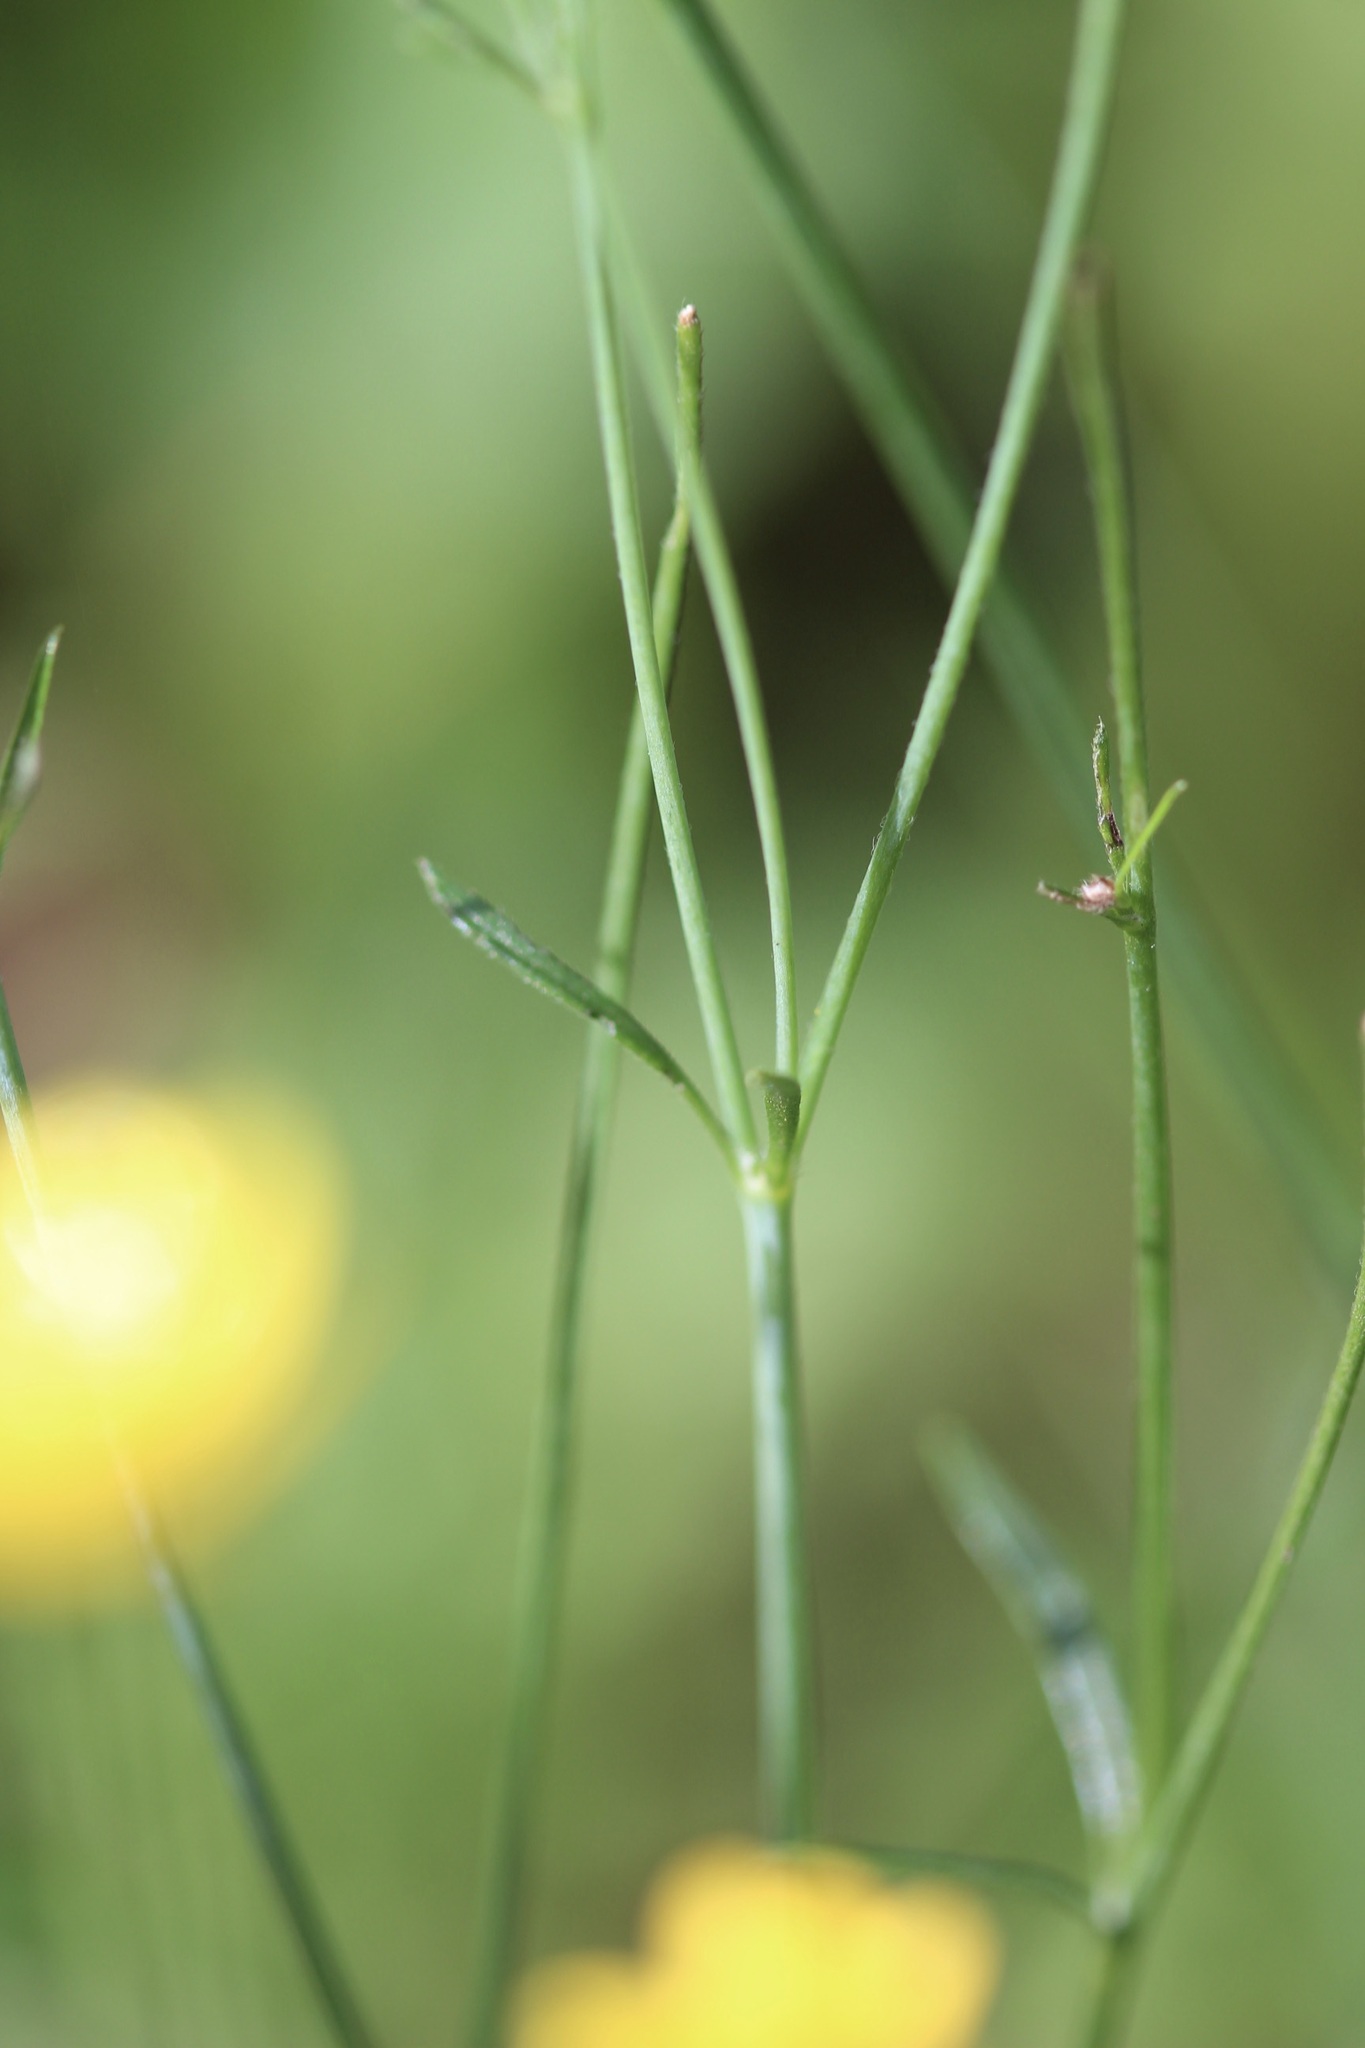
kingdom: Plantae
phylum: Tracheophyta
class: Magnoliopsida
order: Ranunculales
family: Ranunculaceae
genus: Ranunculus
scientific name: Ranunculus californicus
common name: California buttercup
